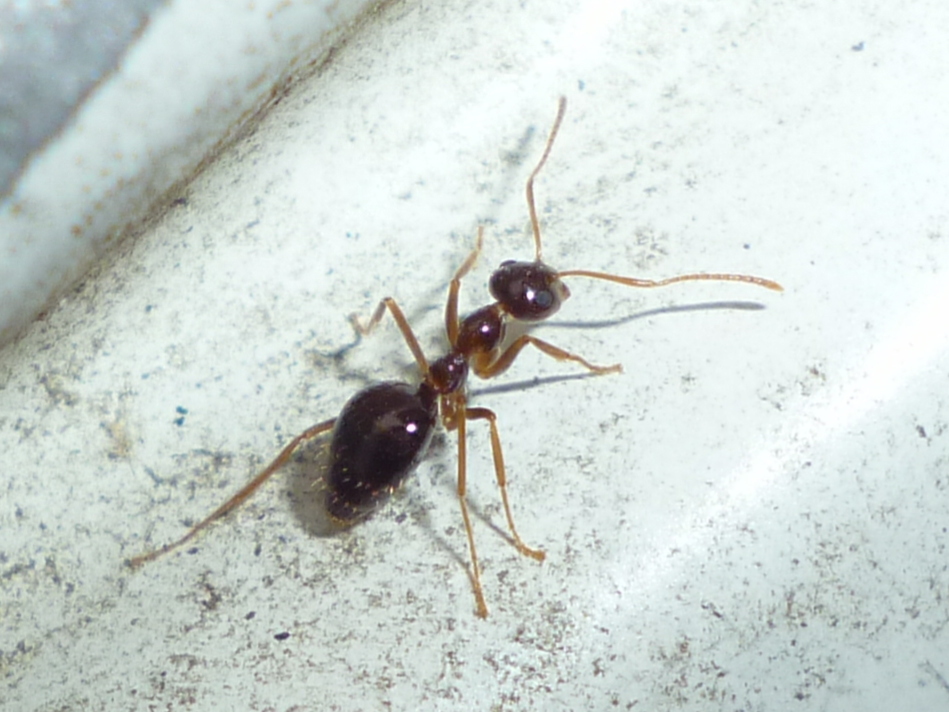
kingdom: Animalia
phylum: Arthropoda
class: Insecta
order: Hymenoptera
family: Formicidae
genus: Prenolepis
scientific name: Prenolepis imparis
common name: Small honey ant
